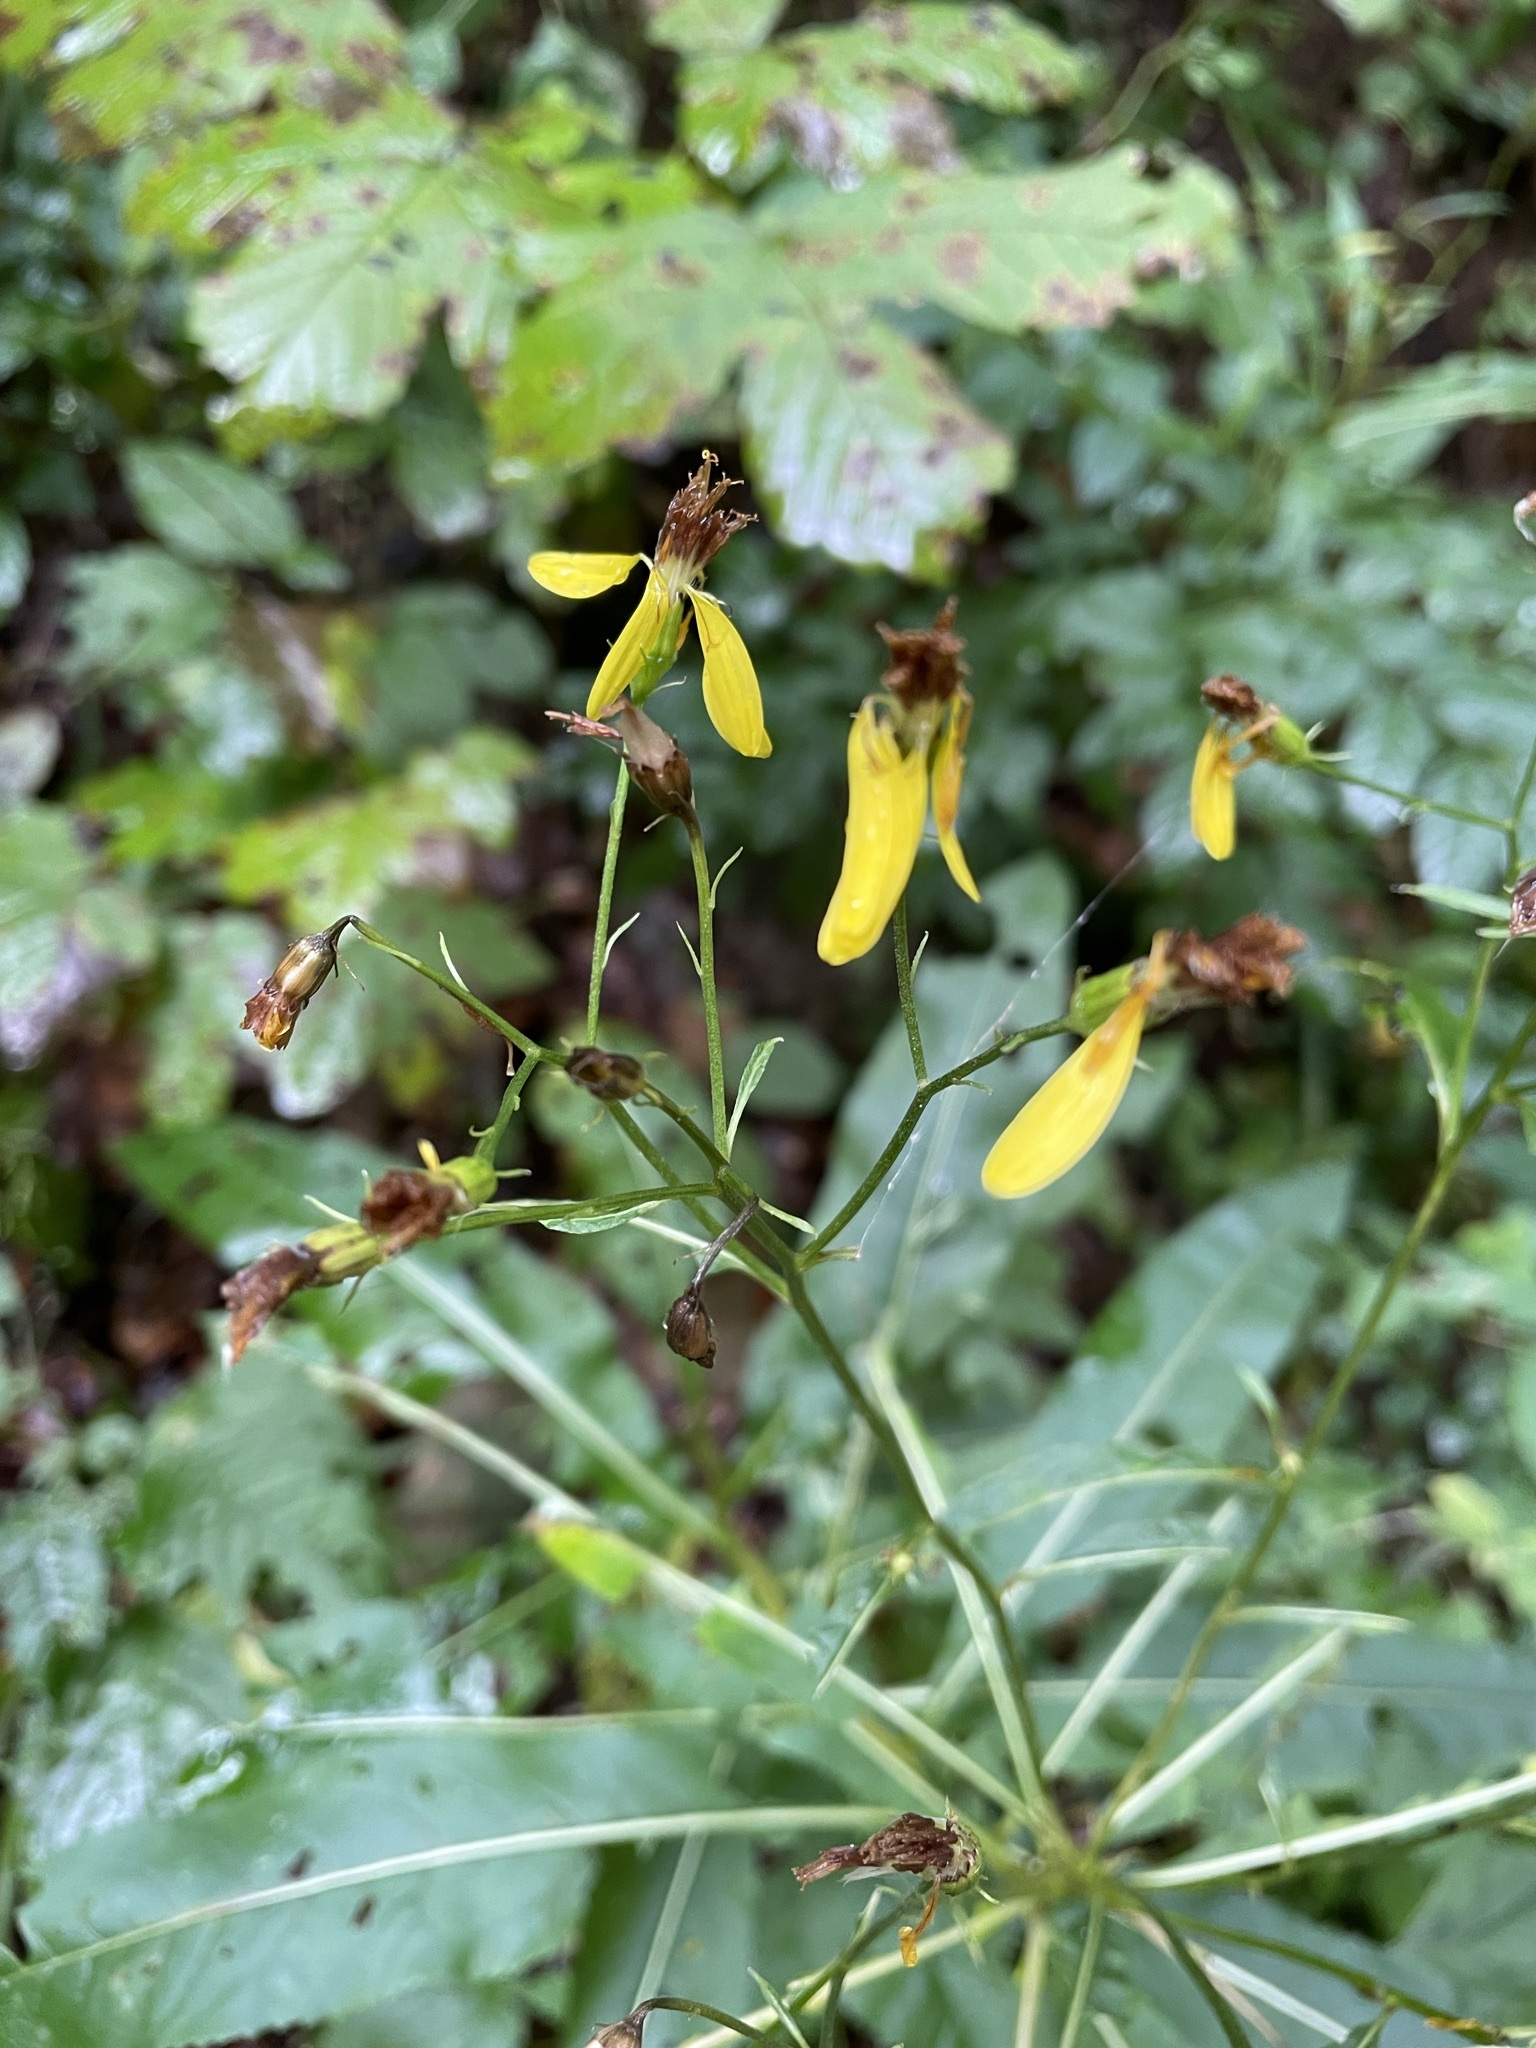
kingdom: Plantae
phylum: Tracheophyta
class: Magnoliopsida
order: Asterales
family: Asteraceae
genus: Senecio
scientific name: Senecio ovatus
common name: Wood ragwort
